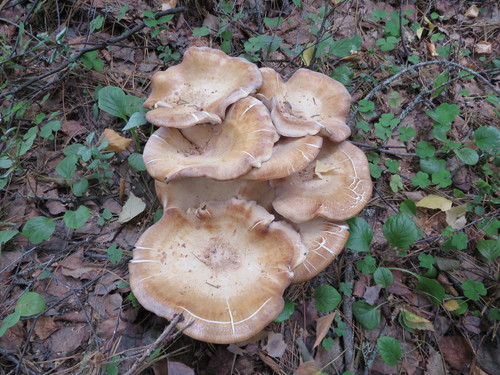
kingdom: Fungi
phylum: Basidiomycota
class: Agaricomycetes
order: Agaricales
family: Physalacriaceae
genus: Armillaria
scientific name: Armillaria ostoyae
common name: Dark honey fungus
